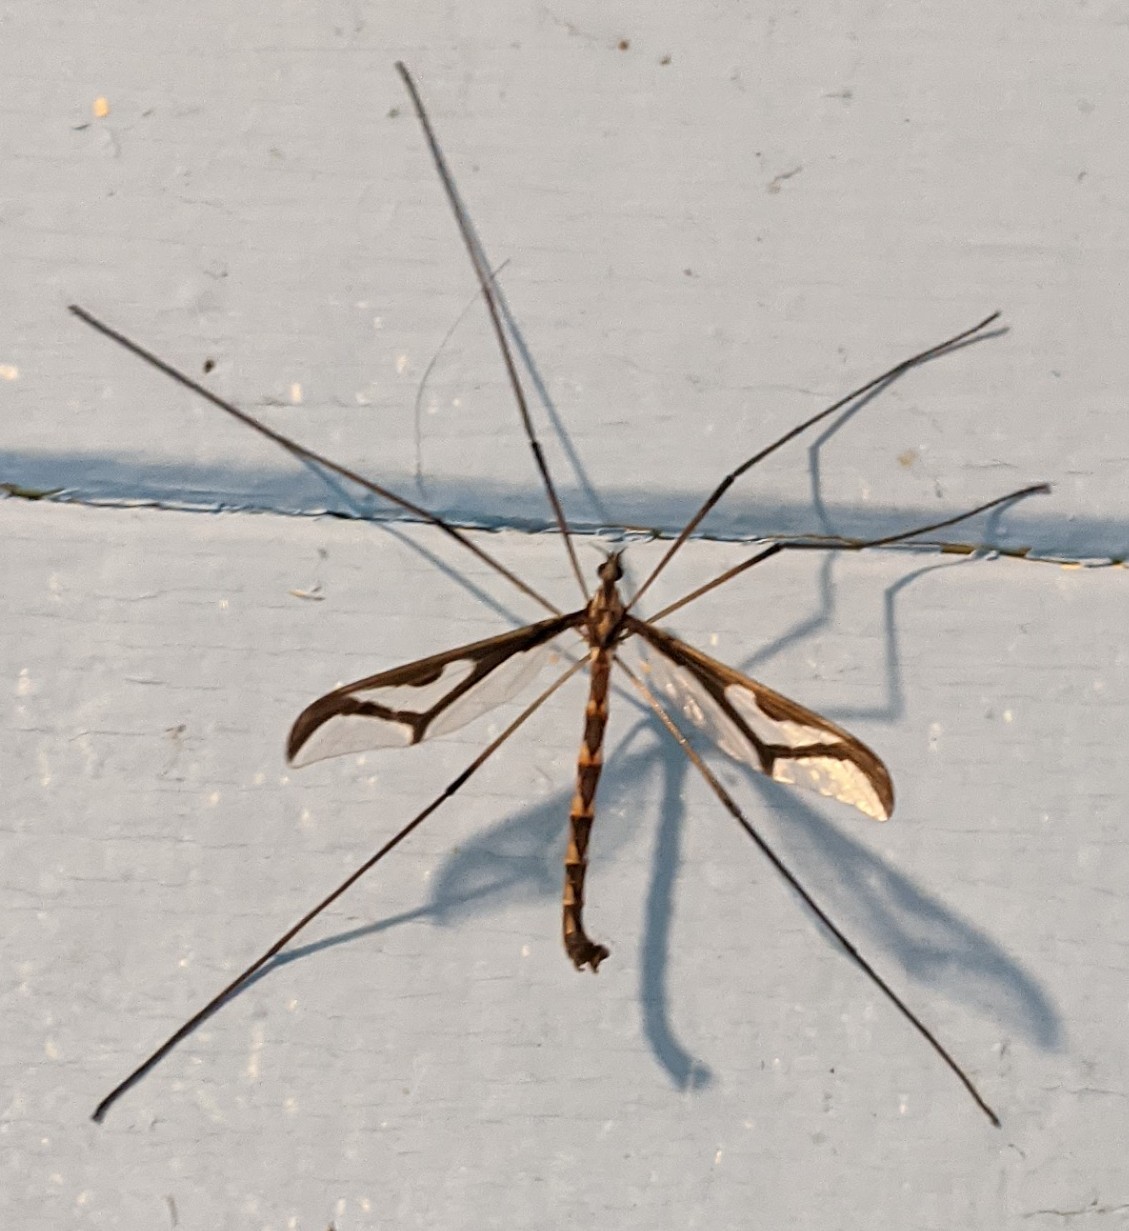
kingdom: Animalia
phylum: Arthropoda
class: Insecta
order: Diptera
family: Pediciidae
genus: Pedicia
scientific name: Pedicia albivitta
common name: Giant eastern crane fly
